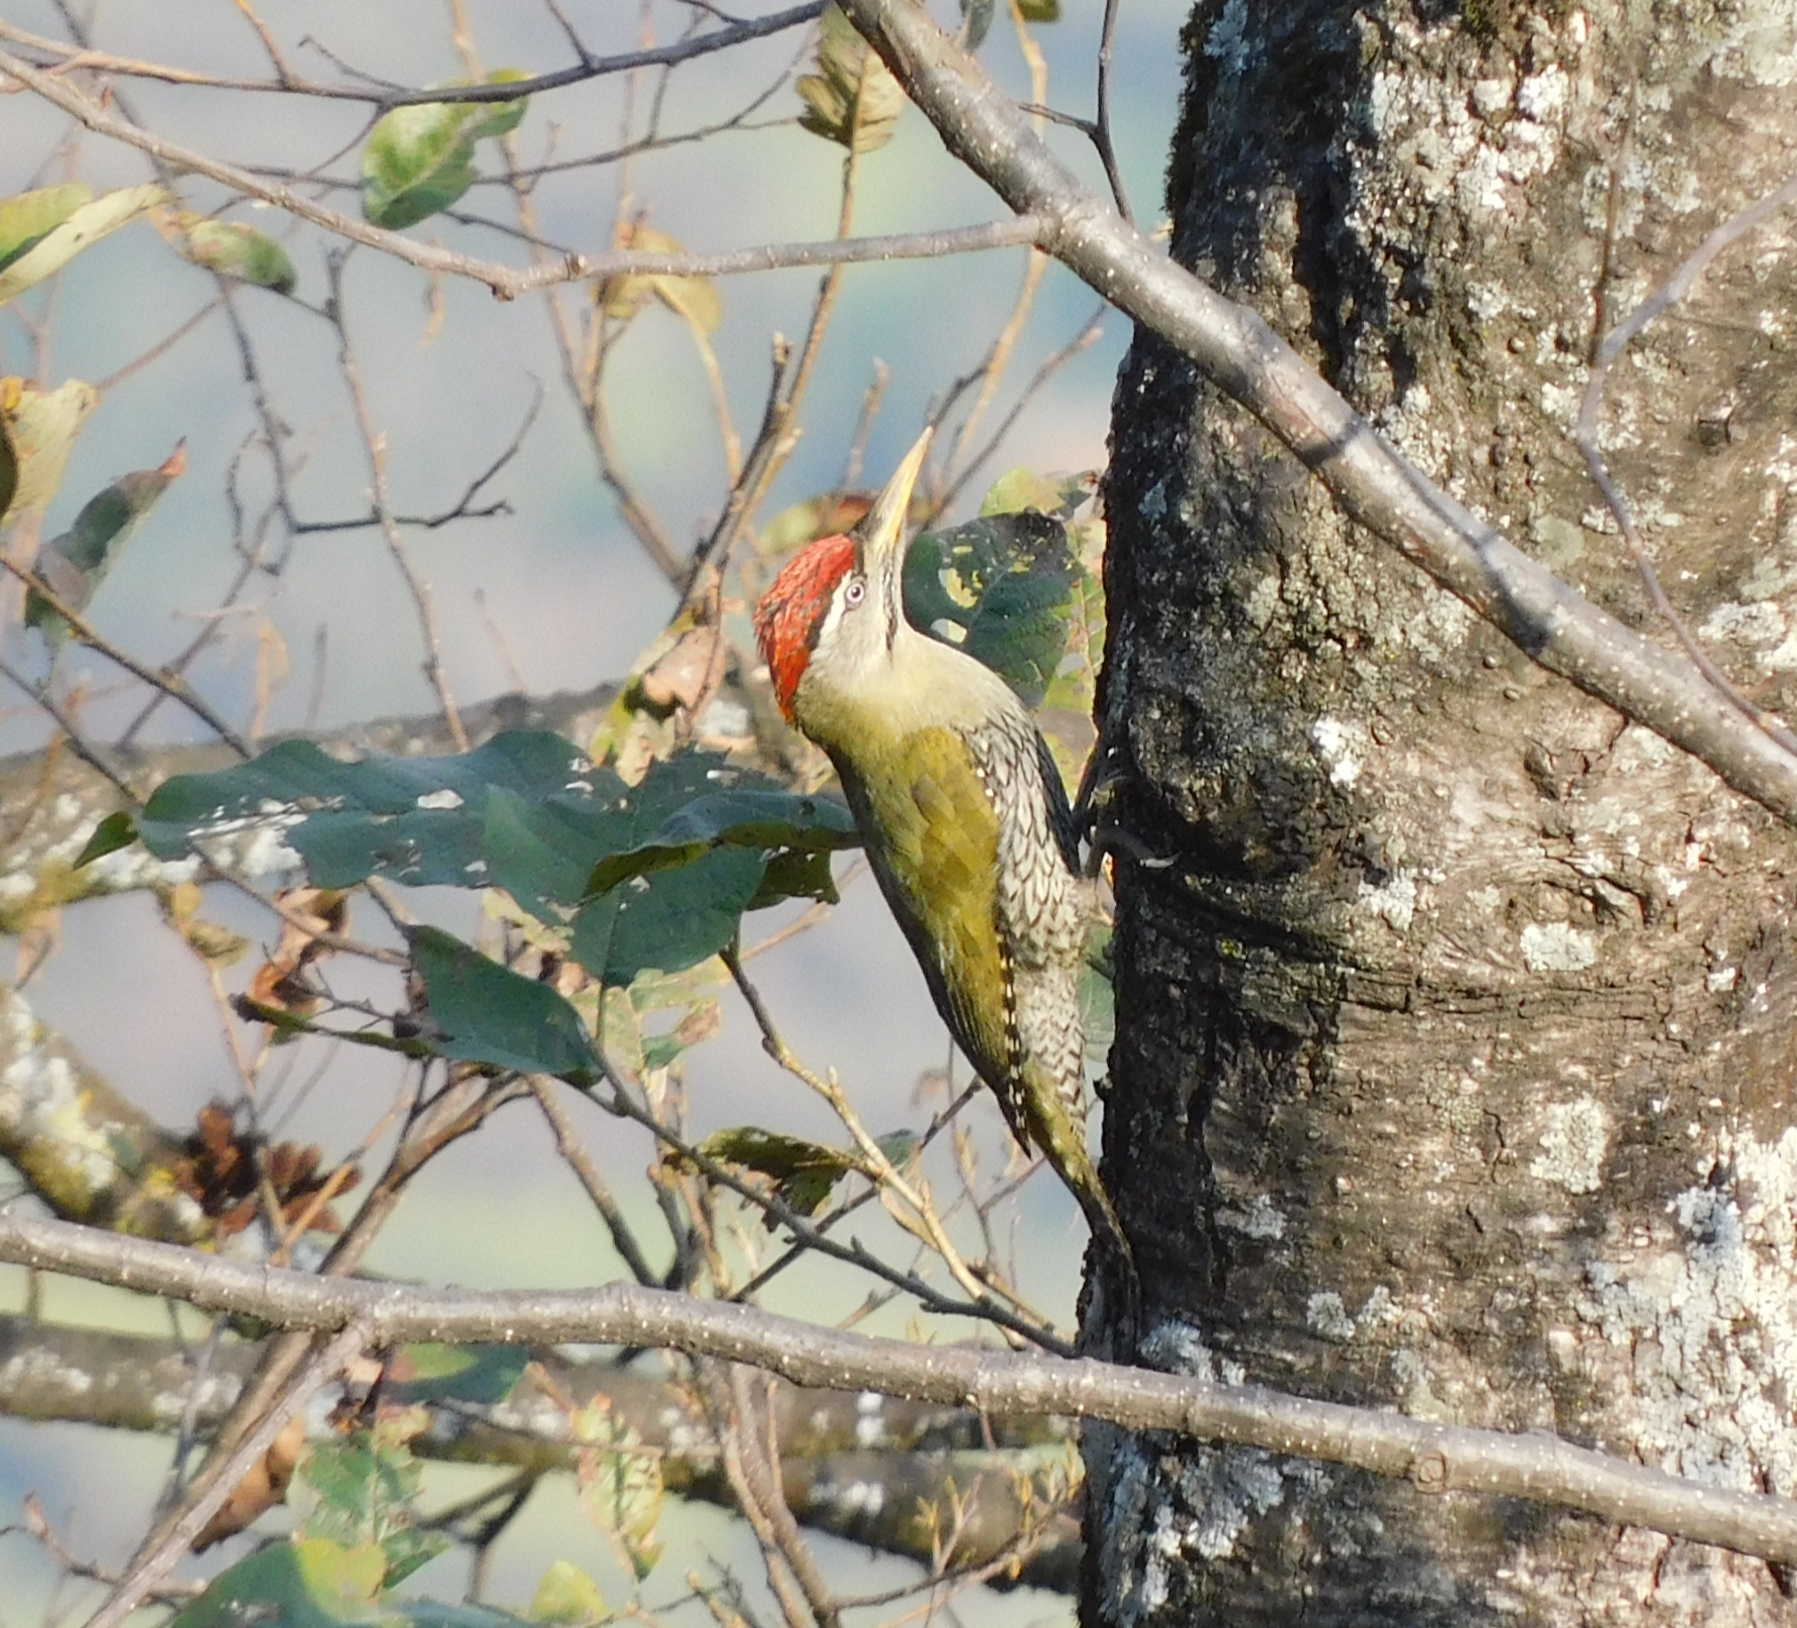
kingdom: Animalia
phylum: Chordata
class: Aves
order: Piciformes
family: Picidae
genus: Picus
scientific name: Picus squamatus
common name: Scaly-bellied woodpecker
